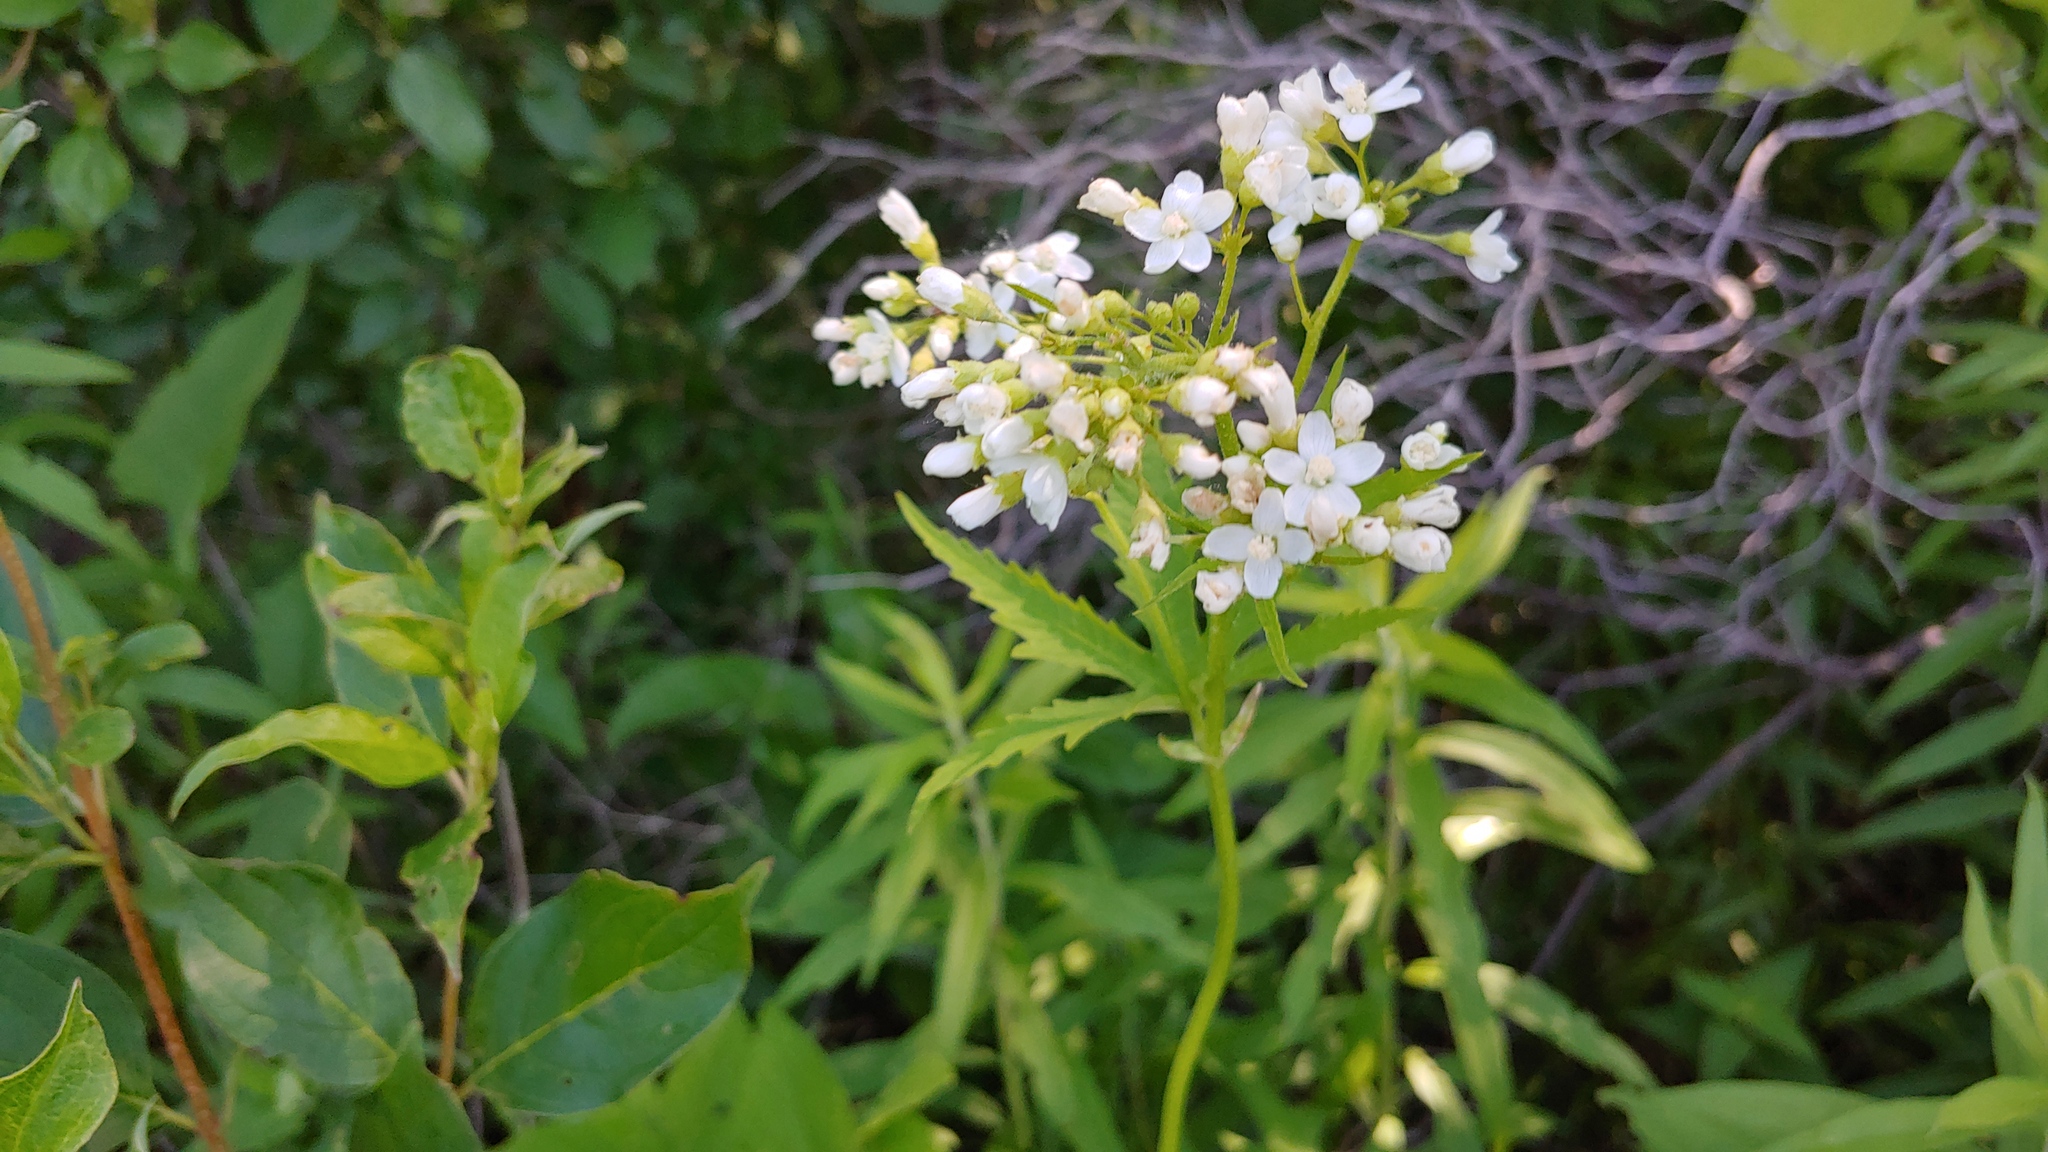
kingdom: Plantae
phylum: Tracheophyta
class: Magnoliopsida
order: Malvales
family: Malvaceae
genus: Napaea
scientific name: Napaea dioica
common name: Glade-mallow
